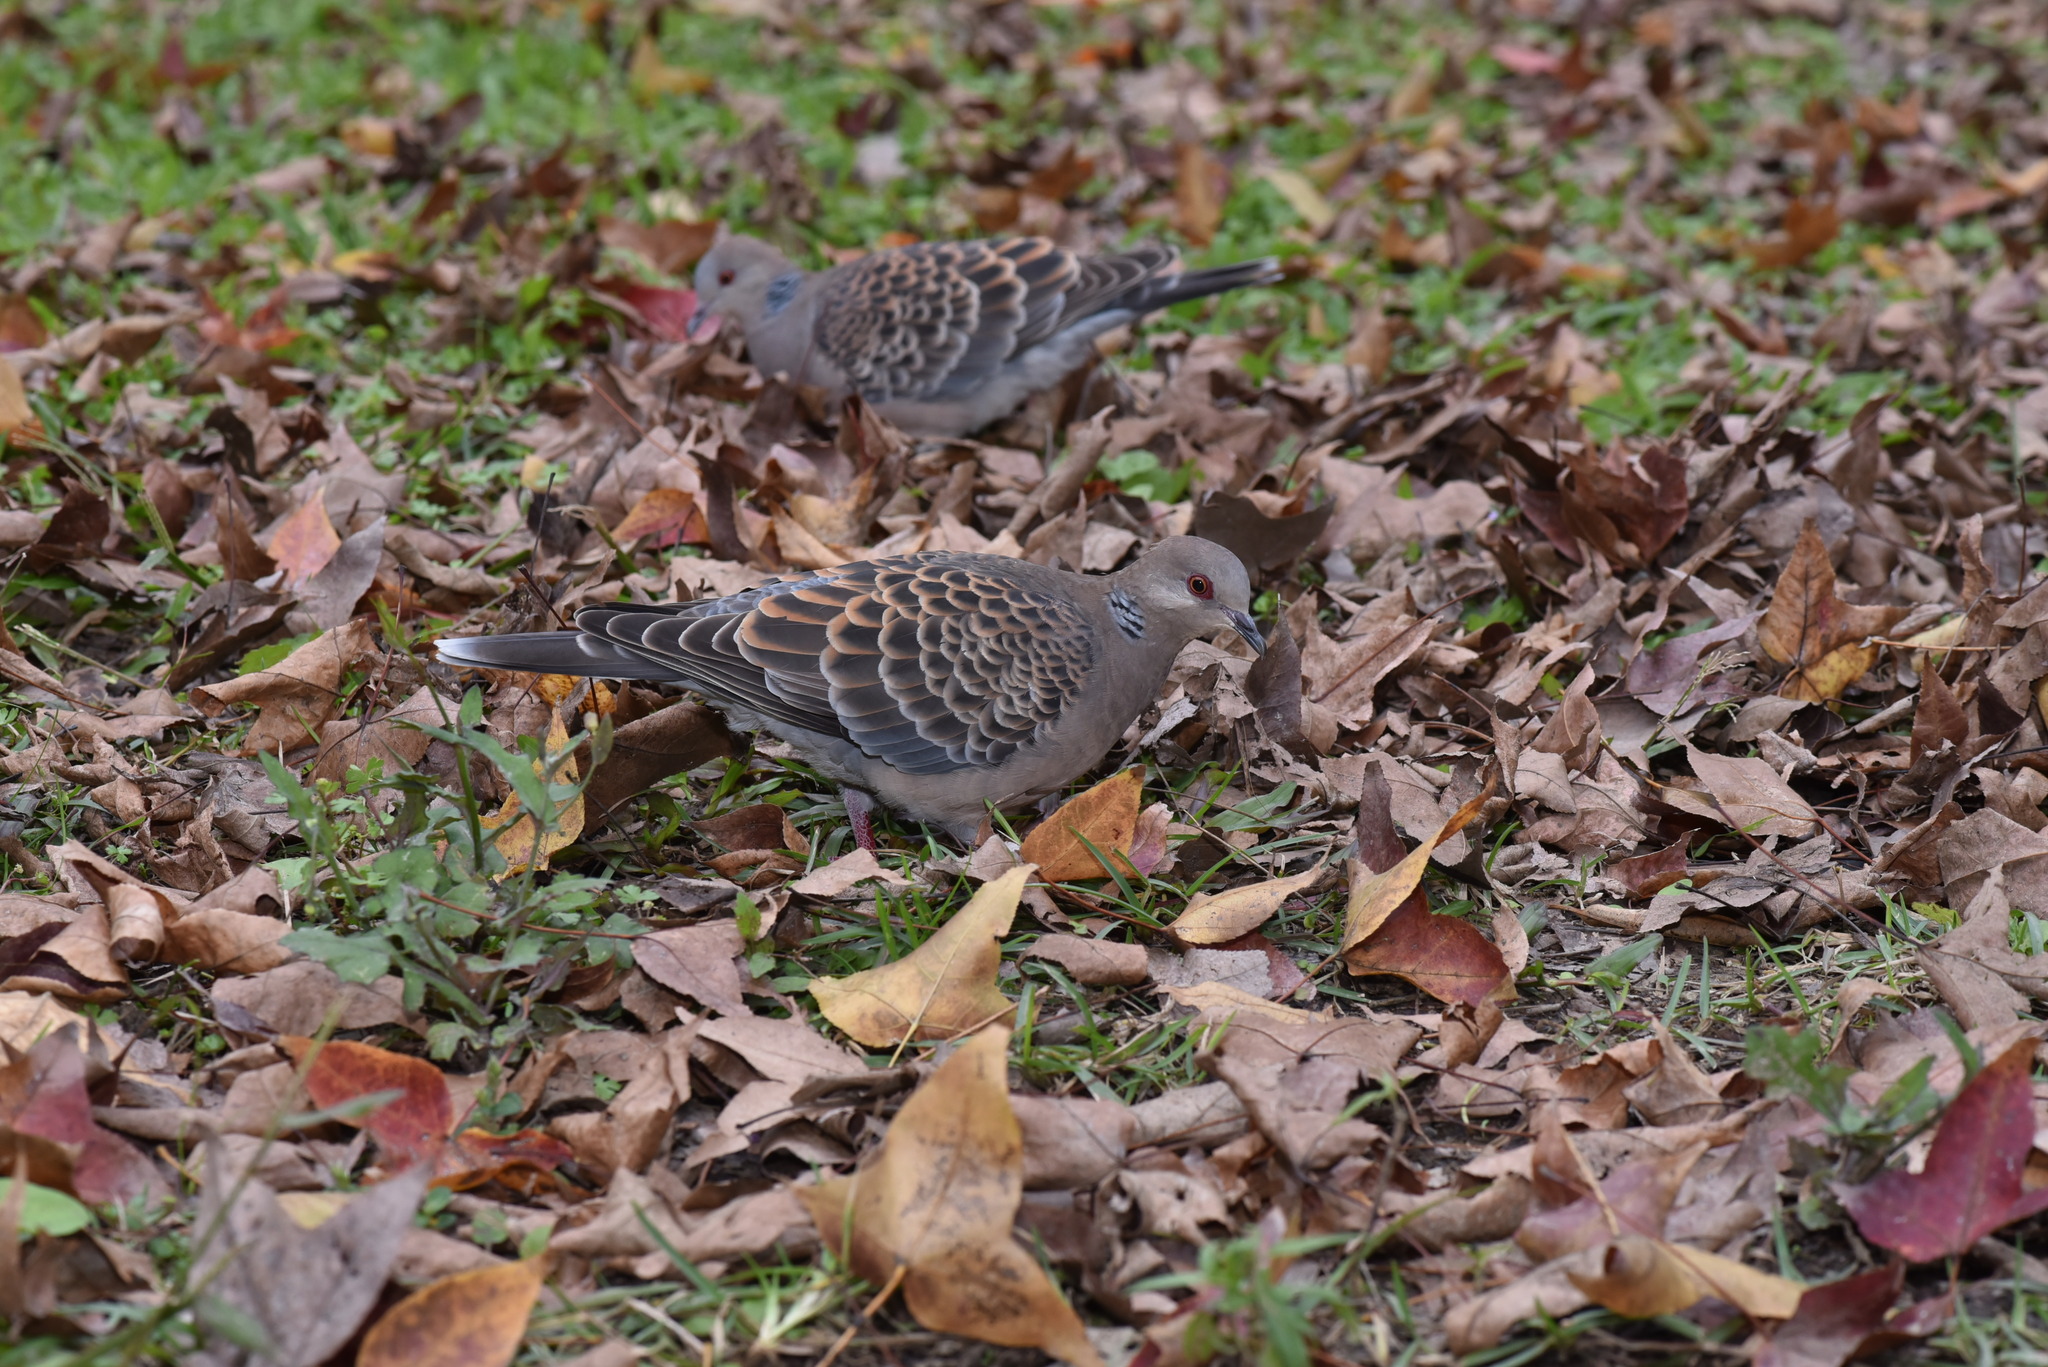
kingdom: Animalia
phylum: Chordata
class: Aves
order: Columbiformes
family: Columbidae
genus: Streptopelia
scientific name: Streptopelia orientalis
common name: Oriental turtle dove
